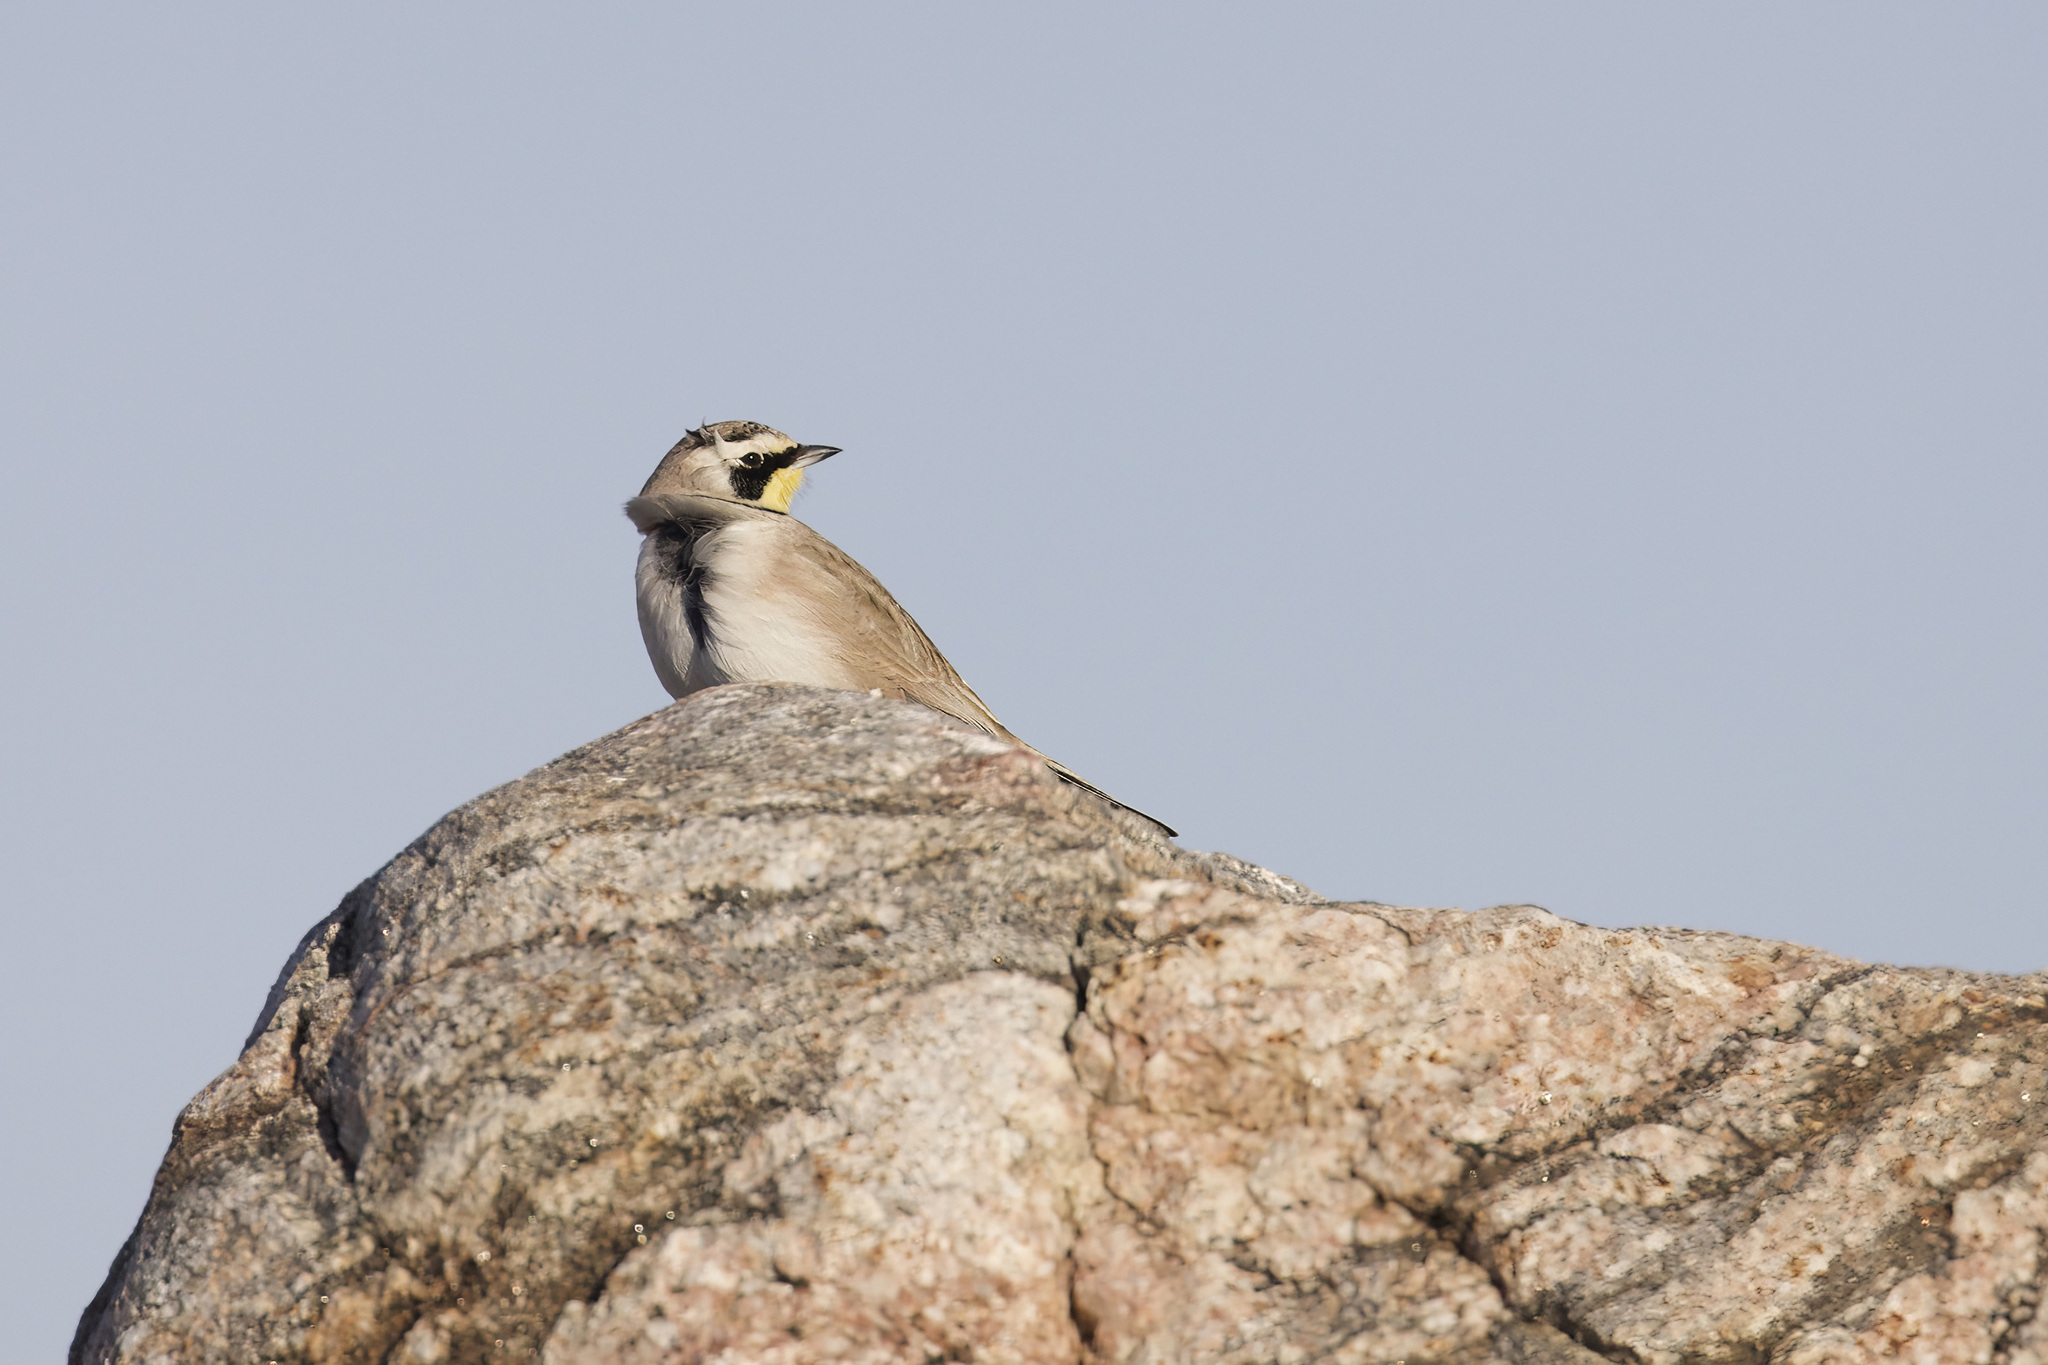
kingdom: Animalia
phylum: Chordata
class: Aves
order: Passeriformes
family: Alaudidae
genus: Eremophila
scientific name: Eremophila alpestris
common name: Horned lark
